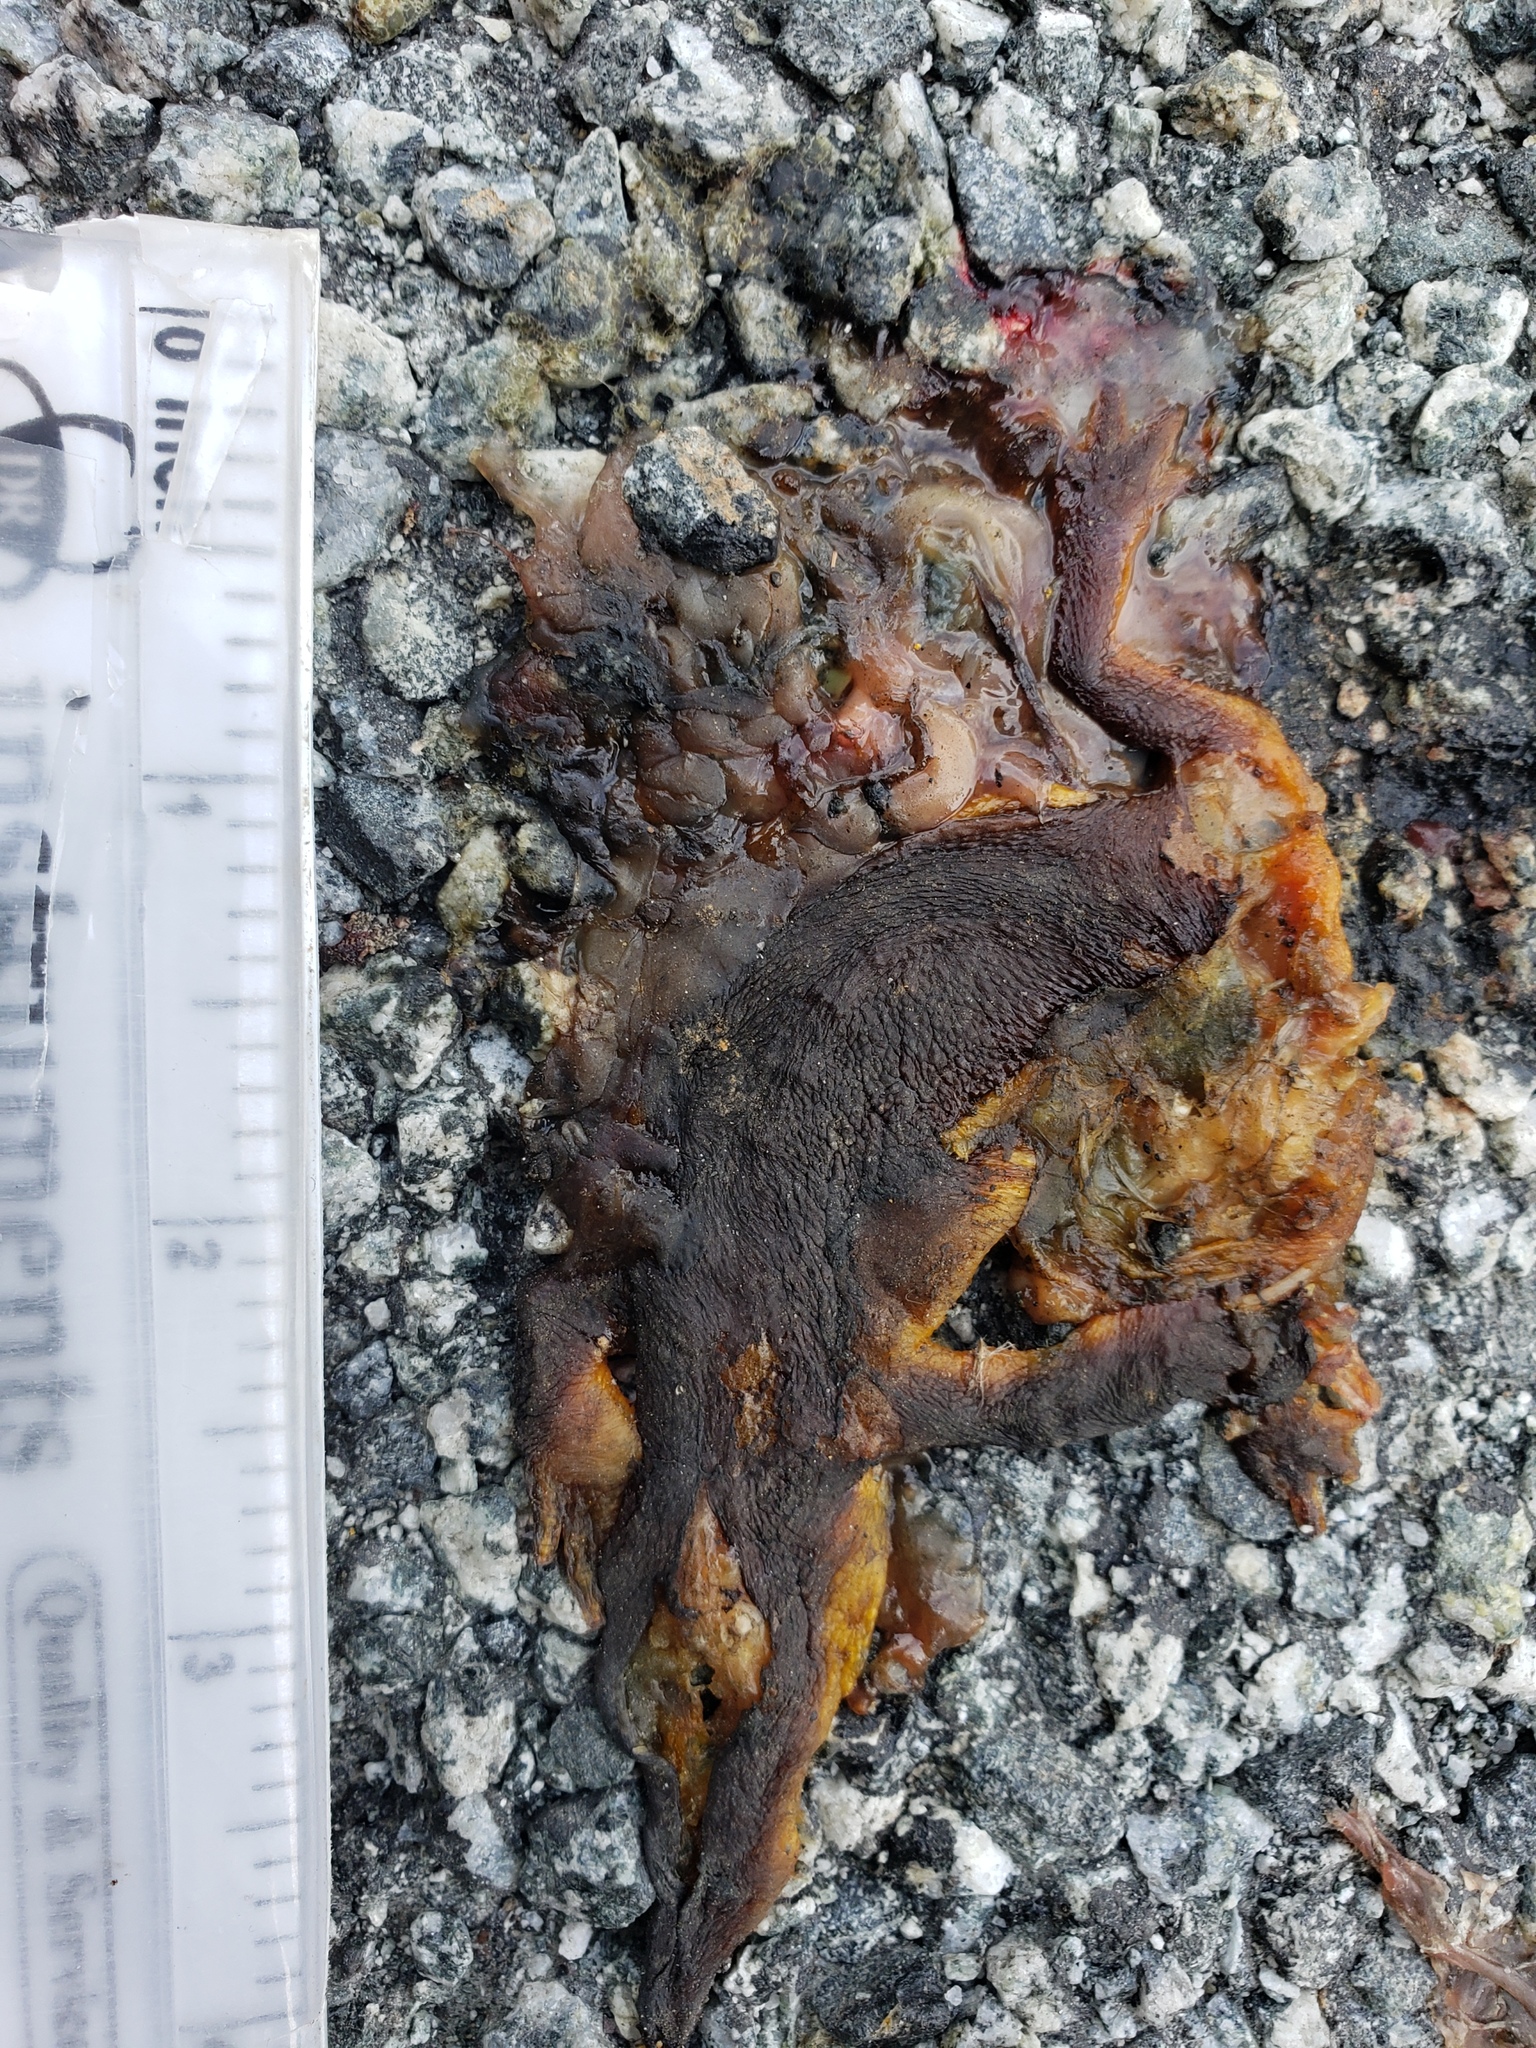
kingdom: Animalia
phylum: Chordata
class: Amphibia
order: Caudata
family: Salamandridae
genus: Taricha
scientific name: Taricha
